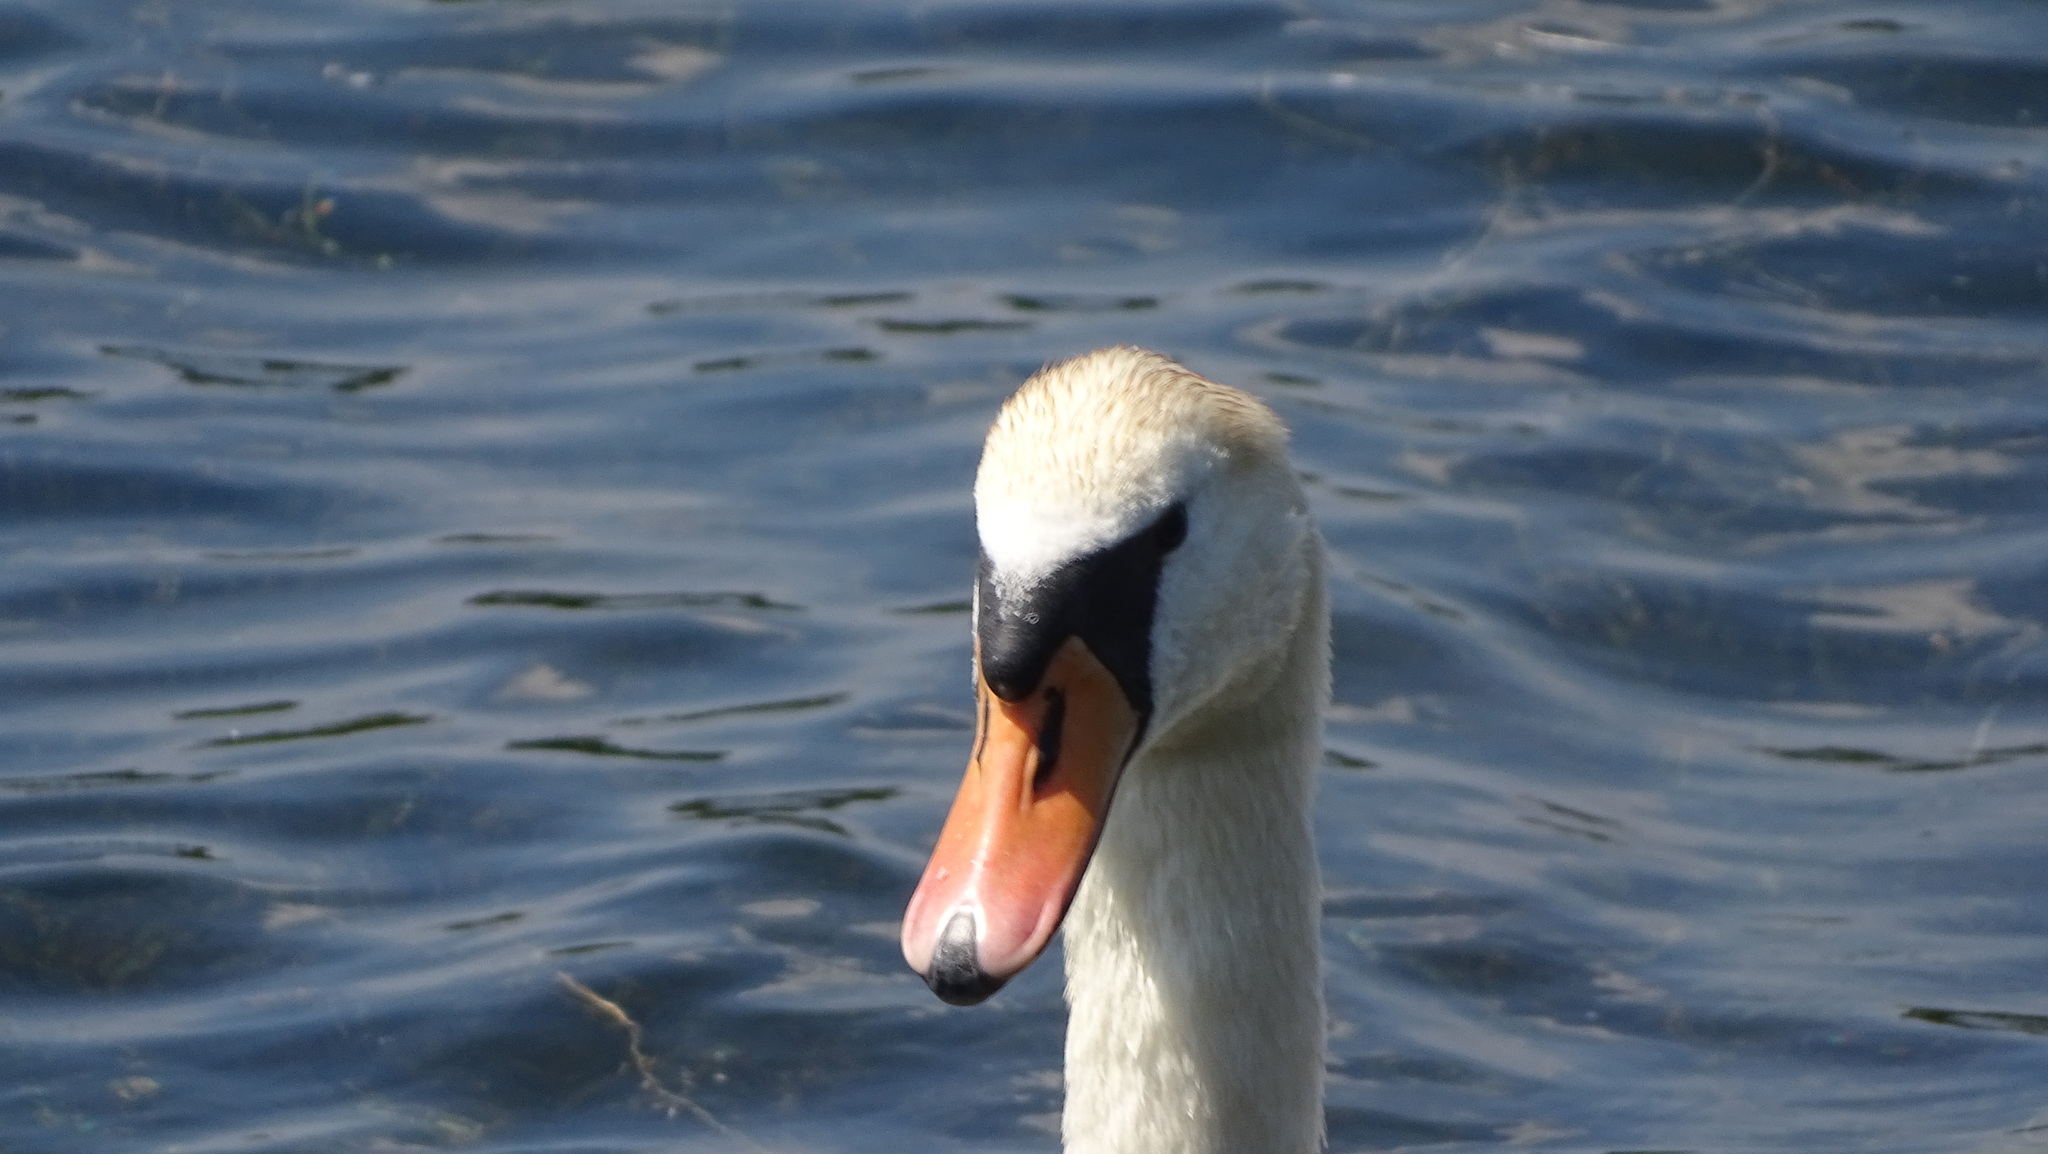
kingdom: Animalia
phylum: Chordata
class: Aves
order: Anseriformes
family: Anatidae
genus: Cygnus
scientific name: Cygnus olor
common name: Mute swan
